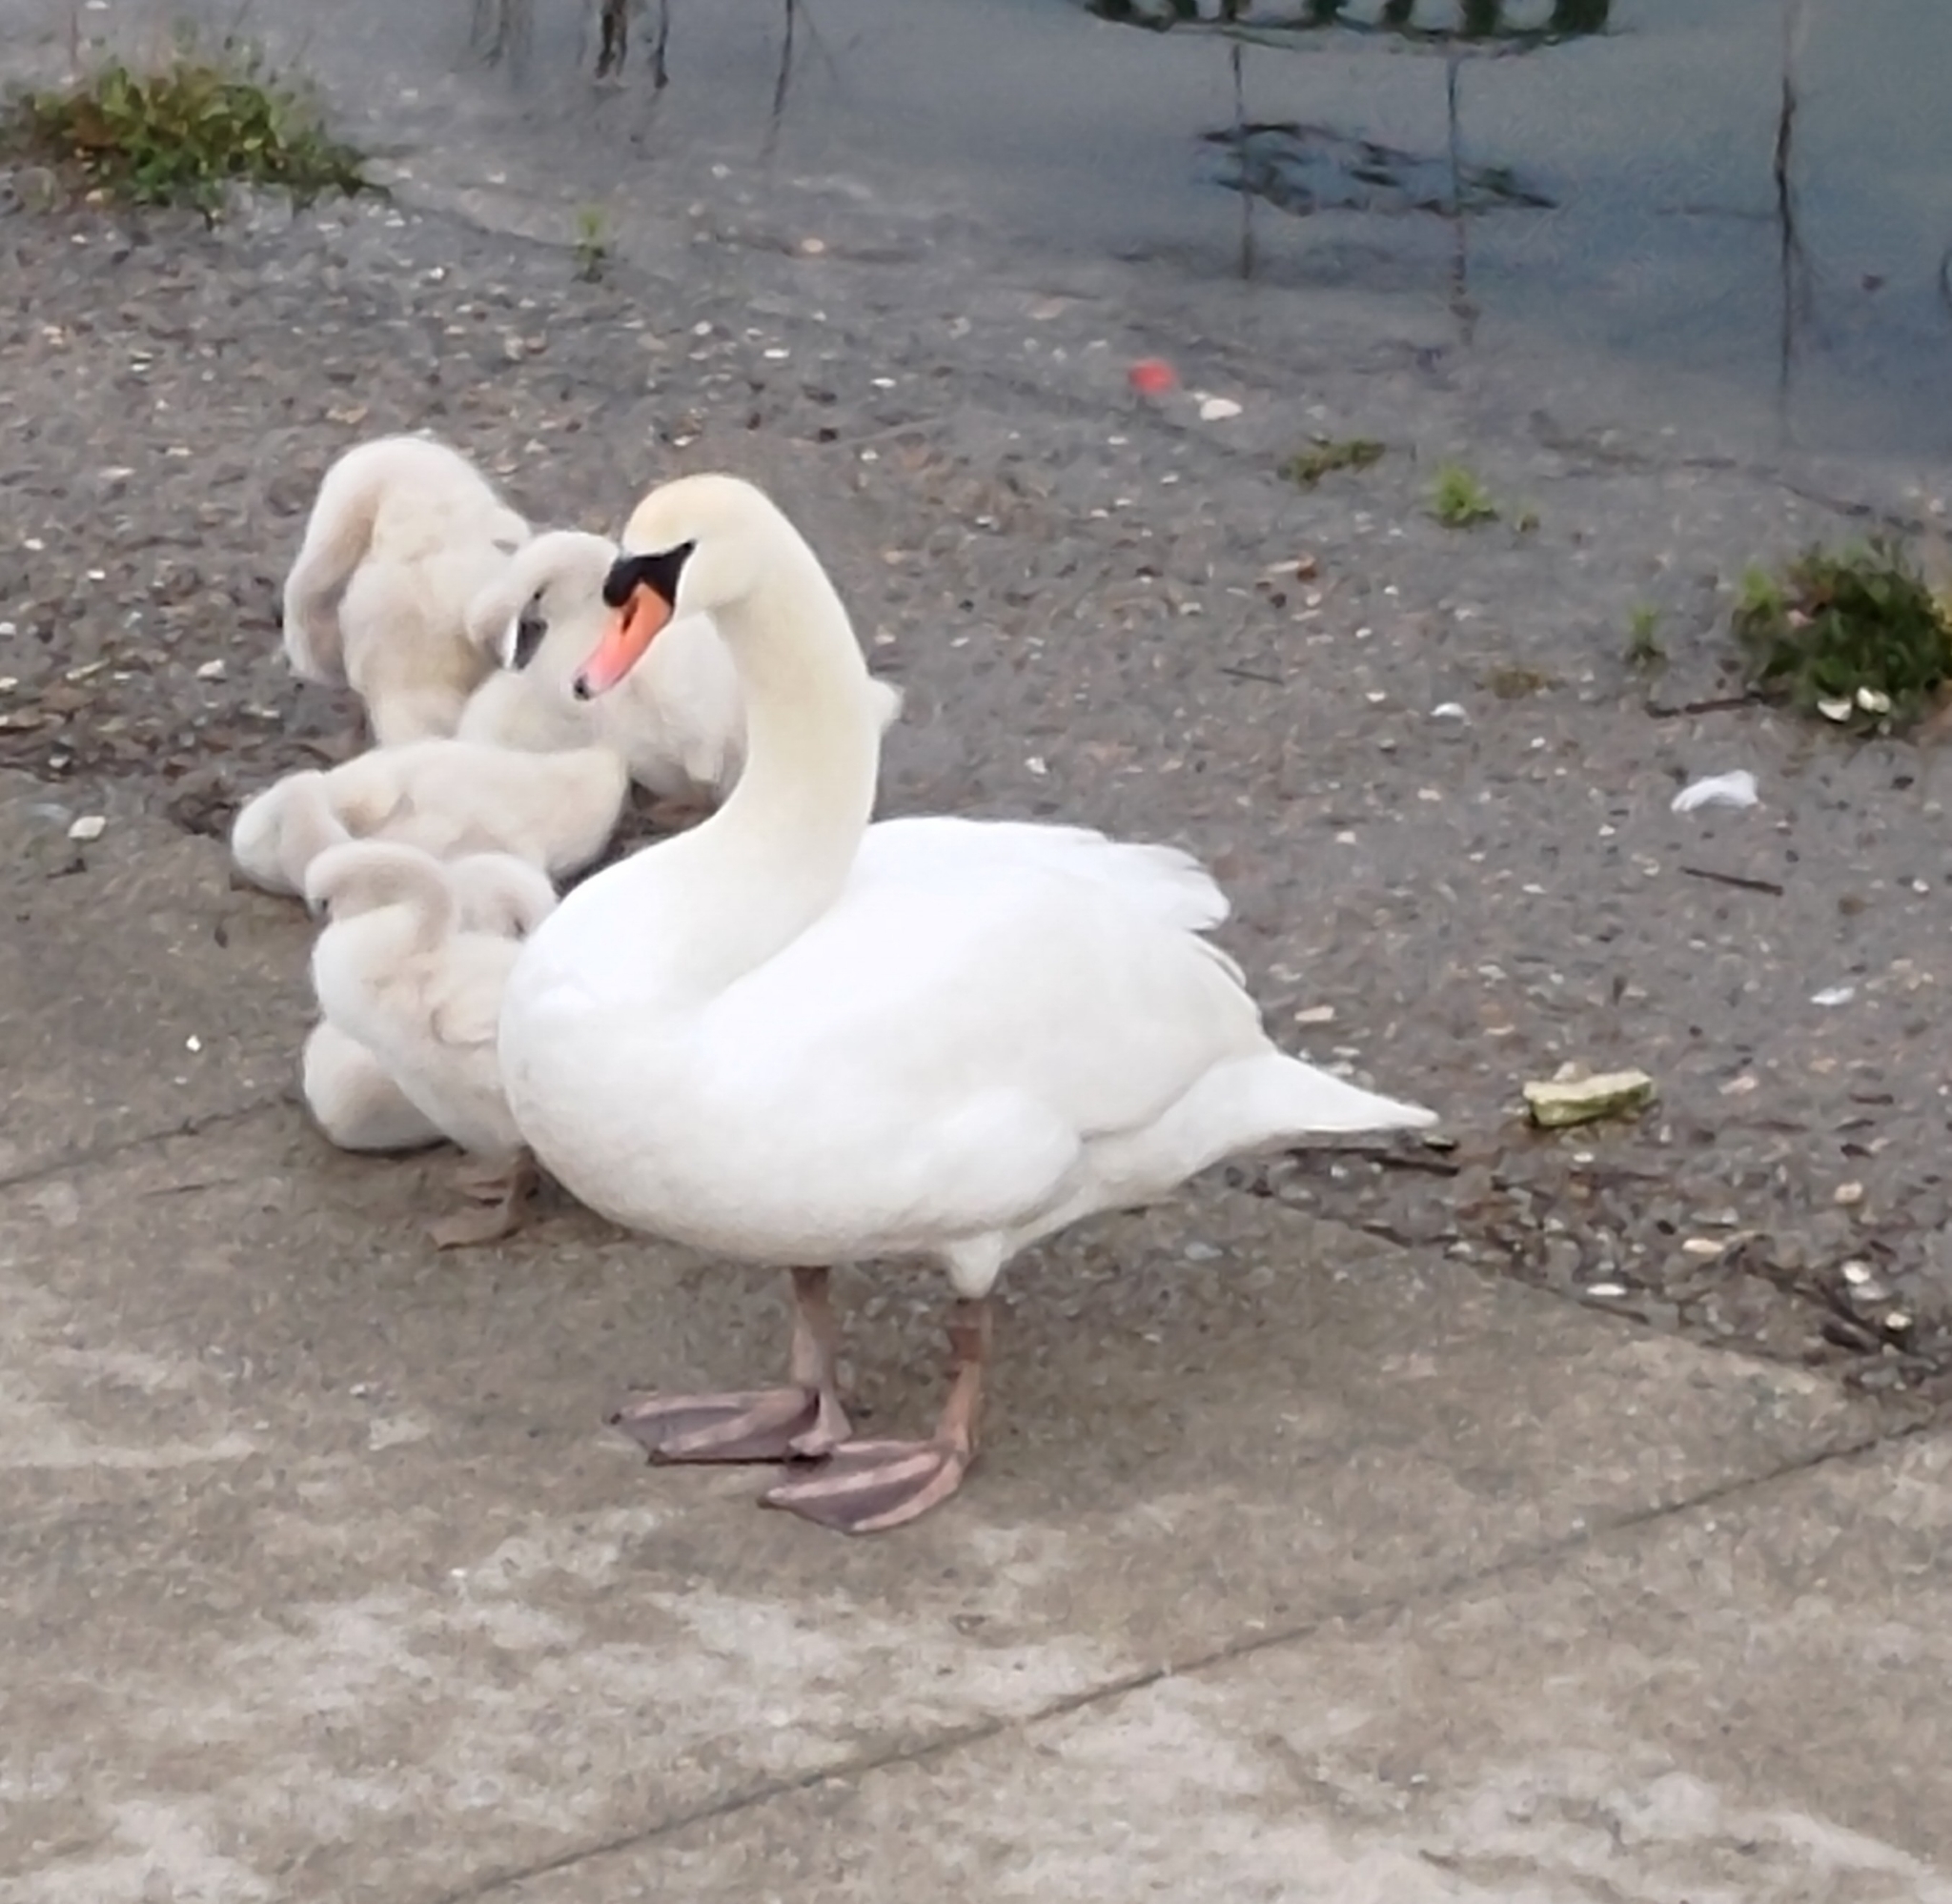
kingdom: Animalia
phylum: Chordata
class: Aves
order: Anseriformes
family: Anatidae
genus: Cygnus
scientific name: Cygnus olor
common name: Mute swan
